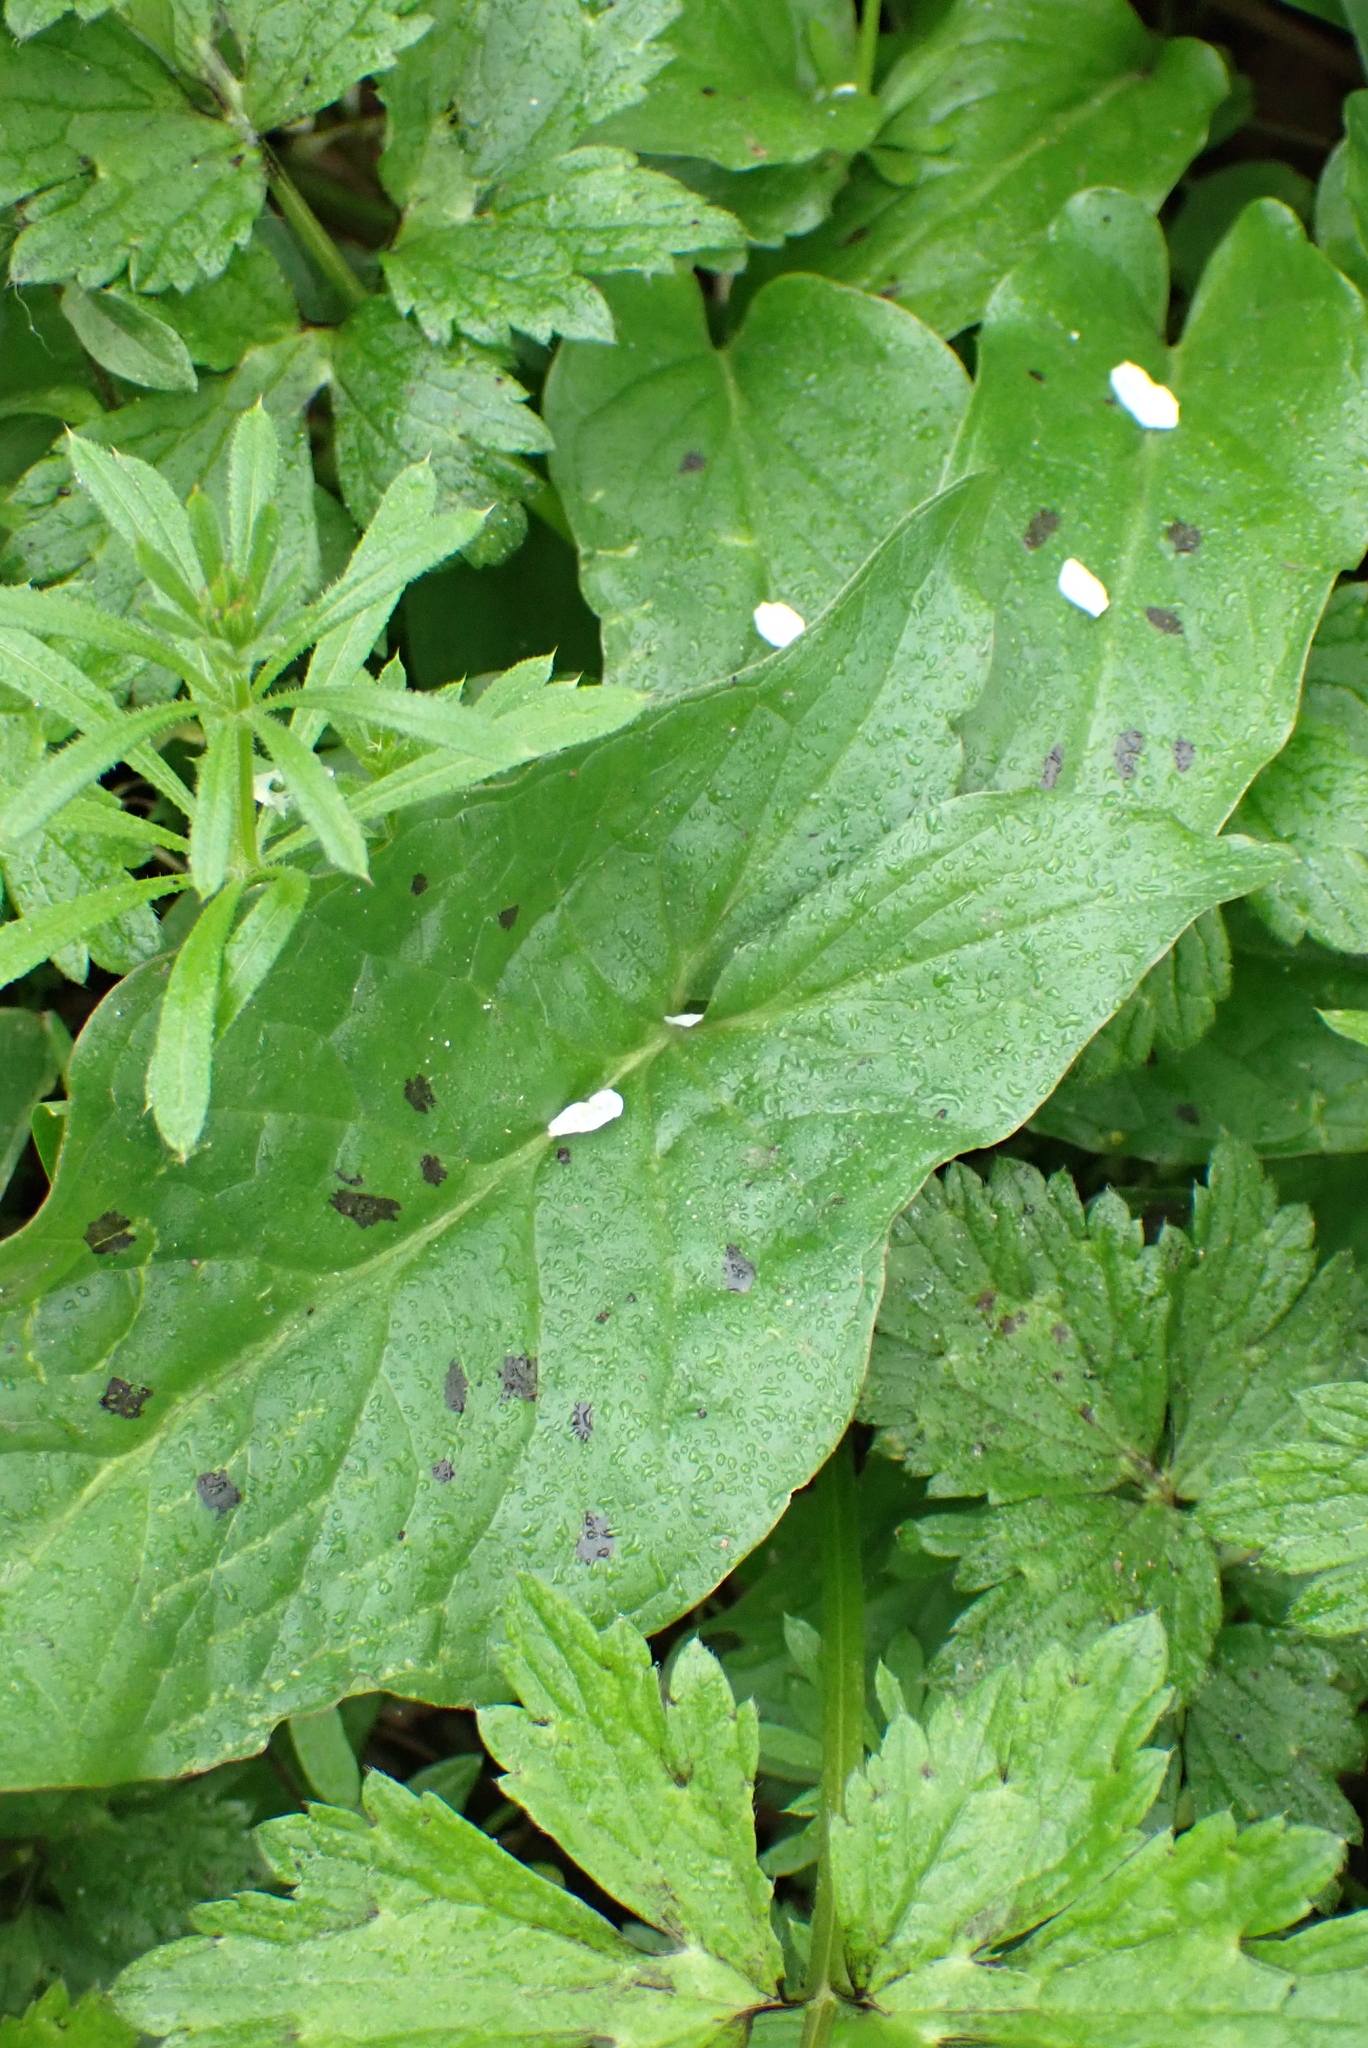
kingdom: Plantae
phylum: Tracheophyta
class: Liliopsida
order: Alismatales
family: Araceae
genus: Arum
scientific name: Arum maculatum
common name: Lords-and-ladies
